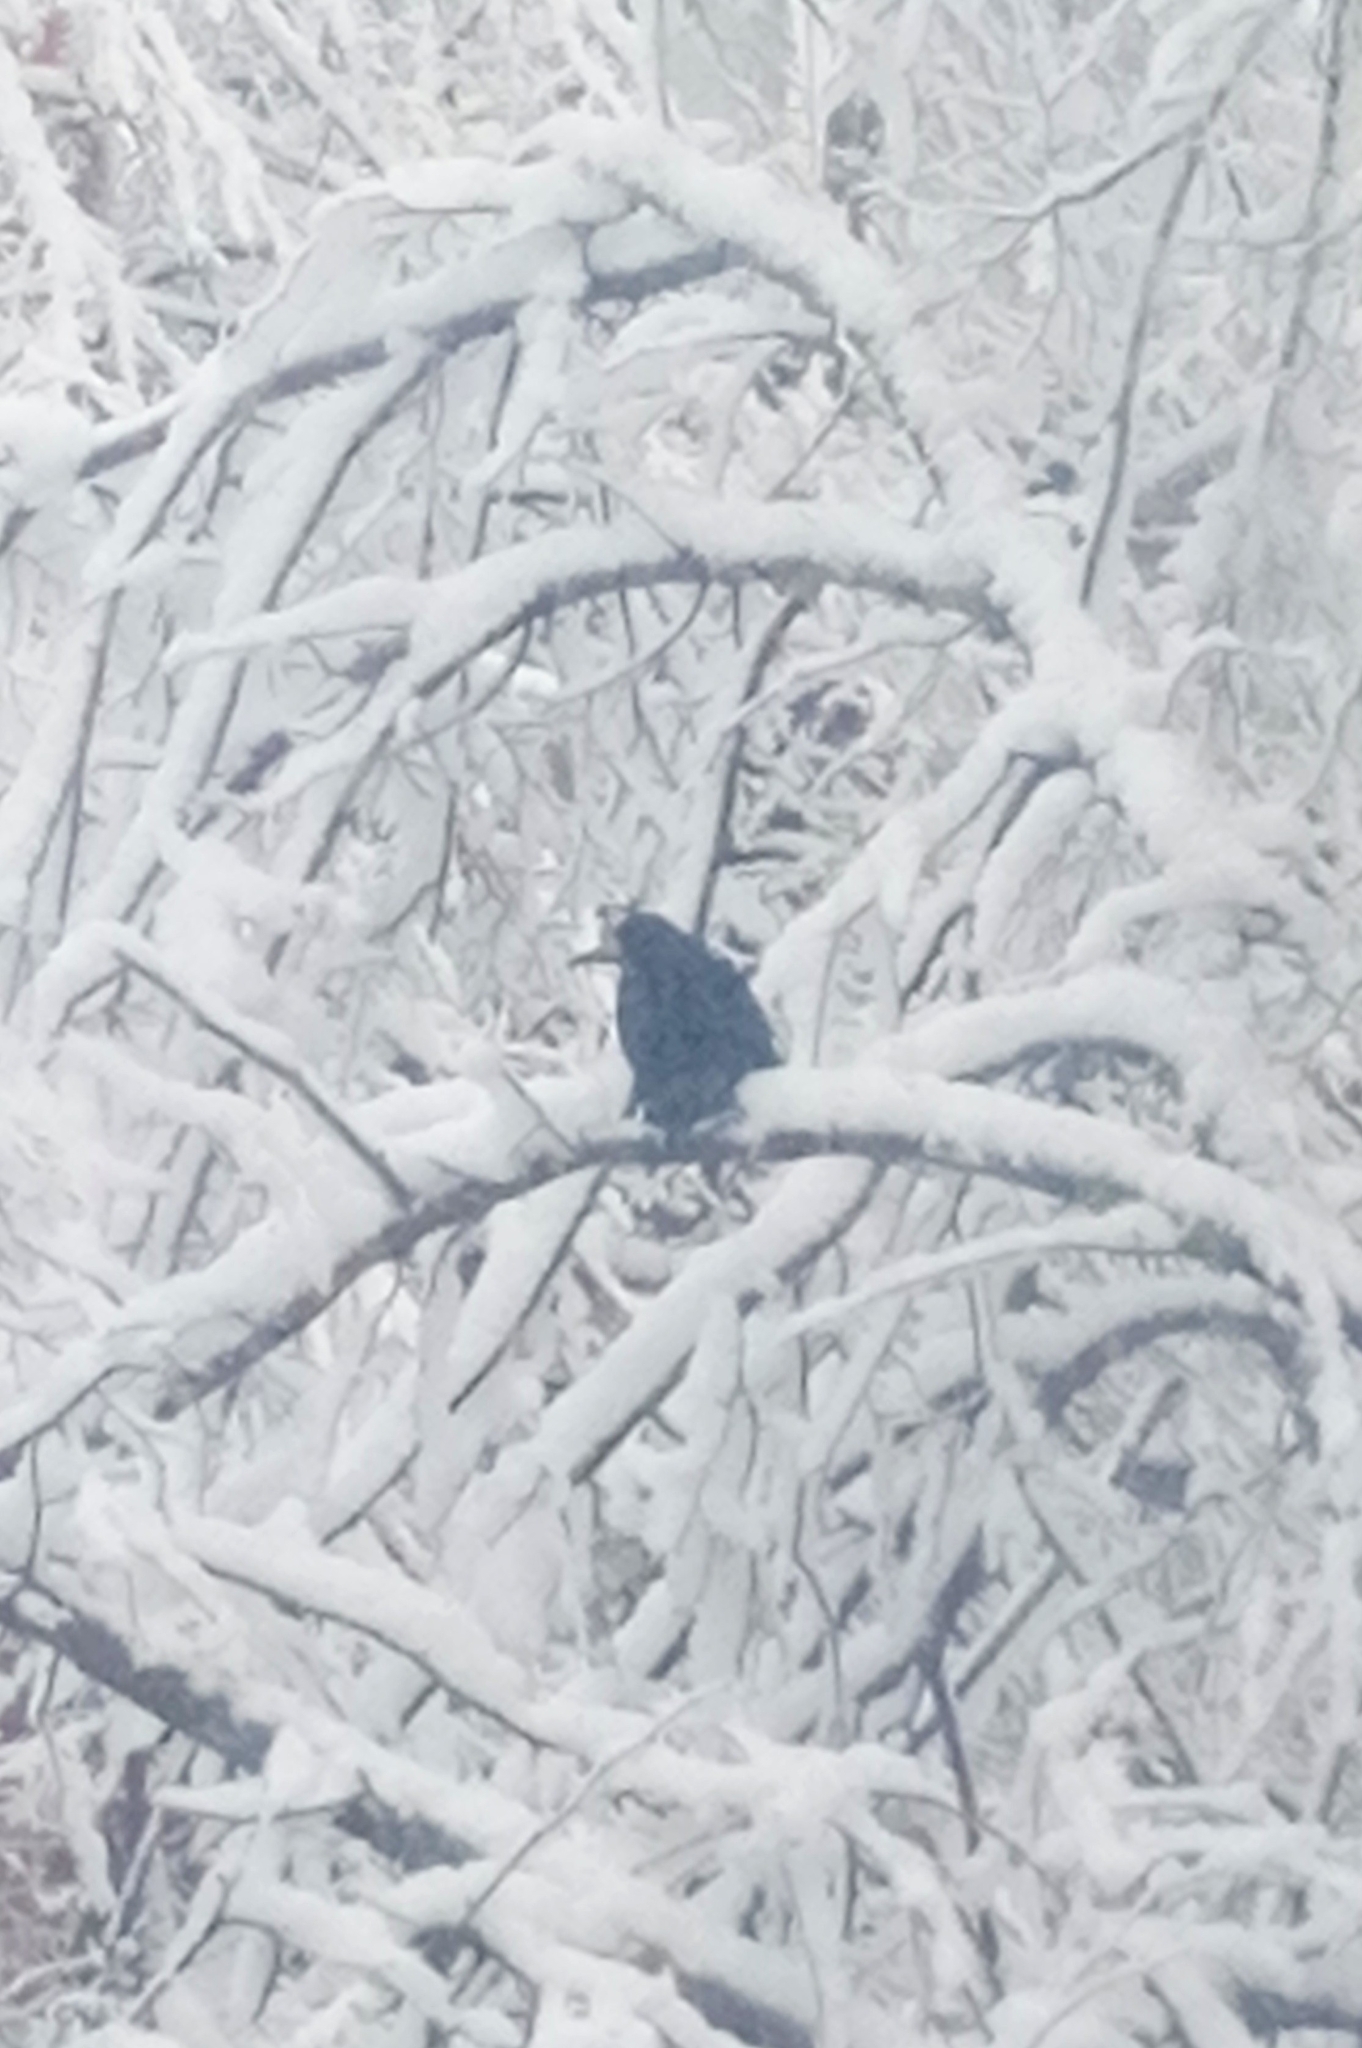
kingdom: Animalia
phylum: Chordata
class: Aves
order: Passeriformes
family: Corvidae
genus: Corvus
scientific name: Corvus frugilegus
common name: Rook
